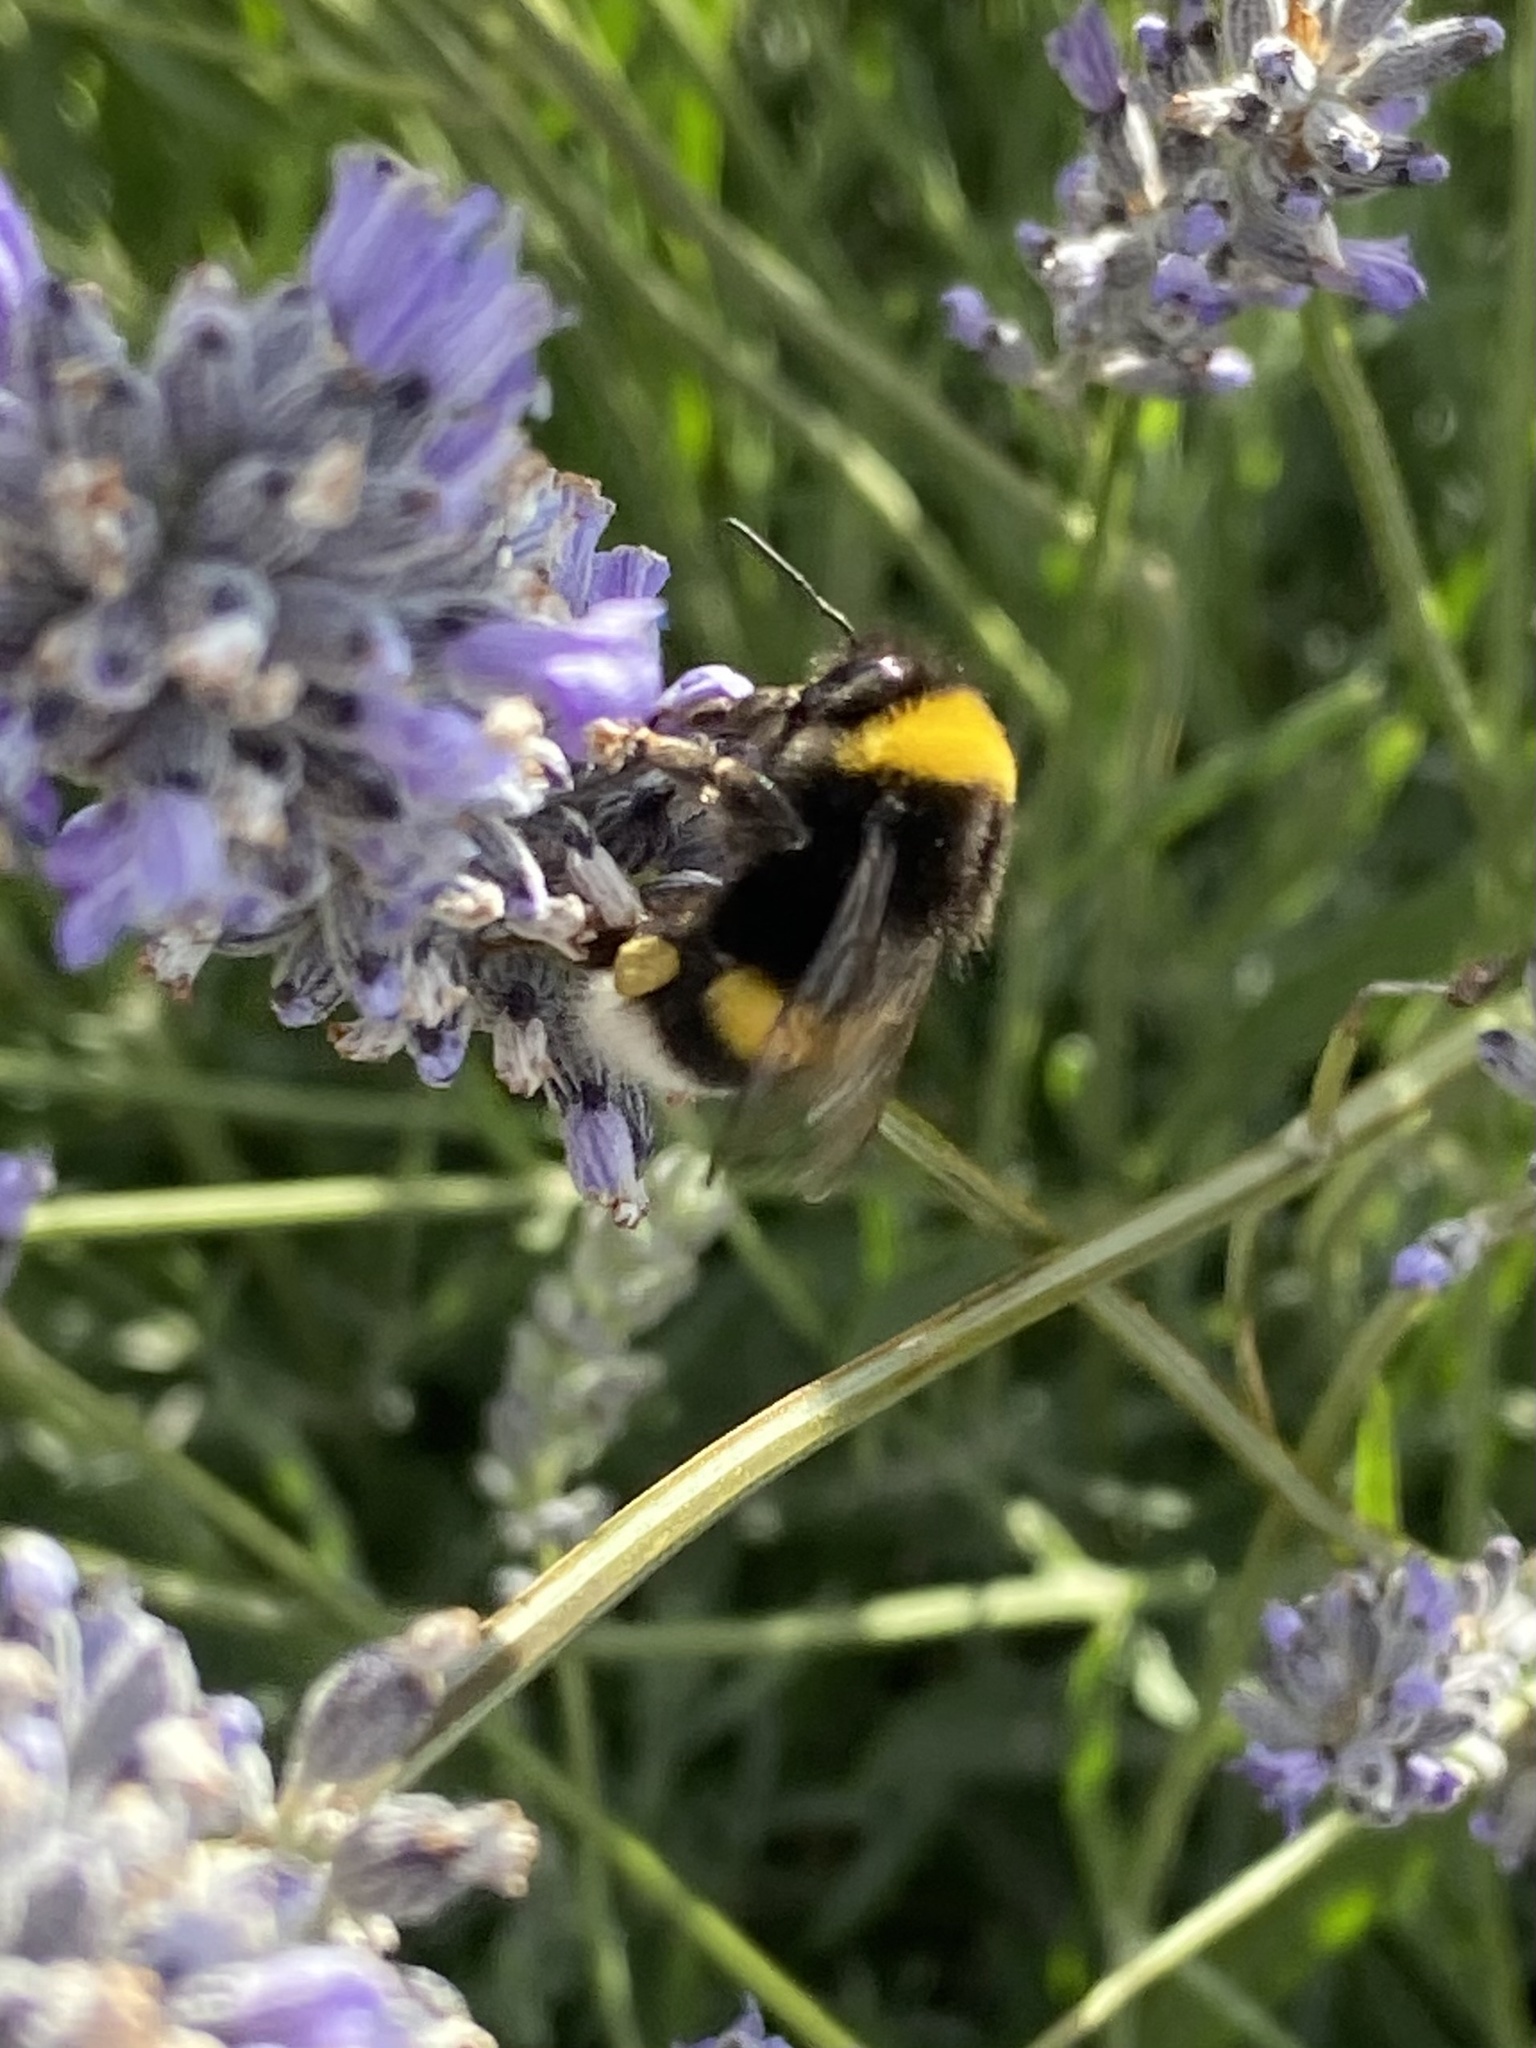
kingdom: Animalia
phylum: Arthropoda
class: Insecta
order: Hymenoptera
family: Apidae
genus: Bombus
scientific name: Bombus terrestris
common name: Buff-tailed bumblebee
